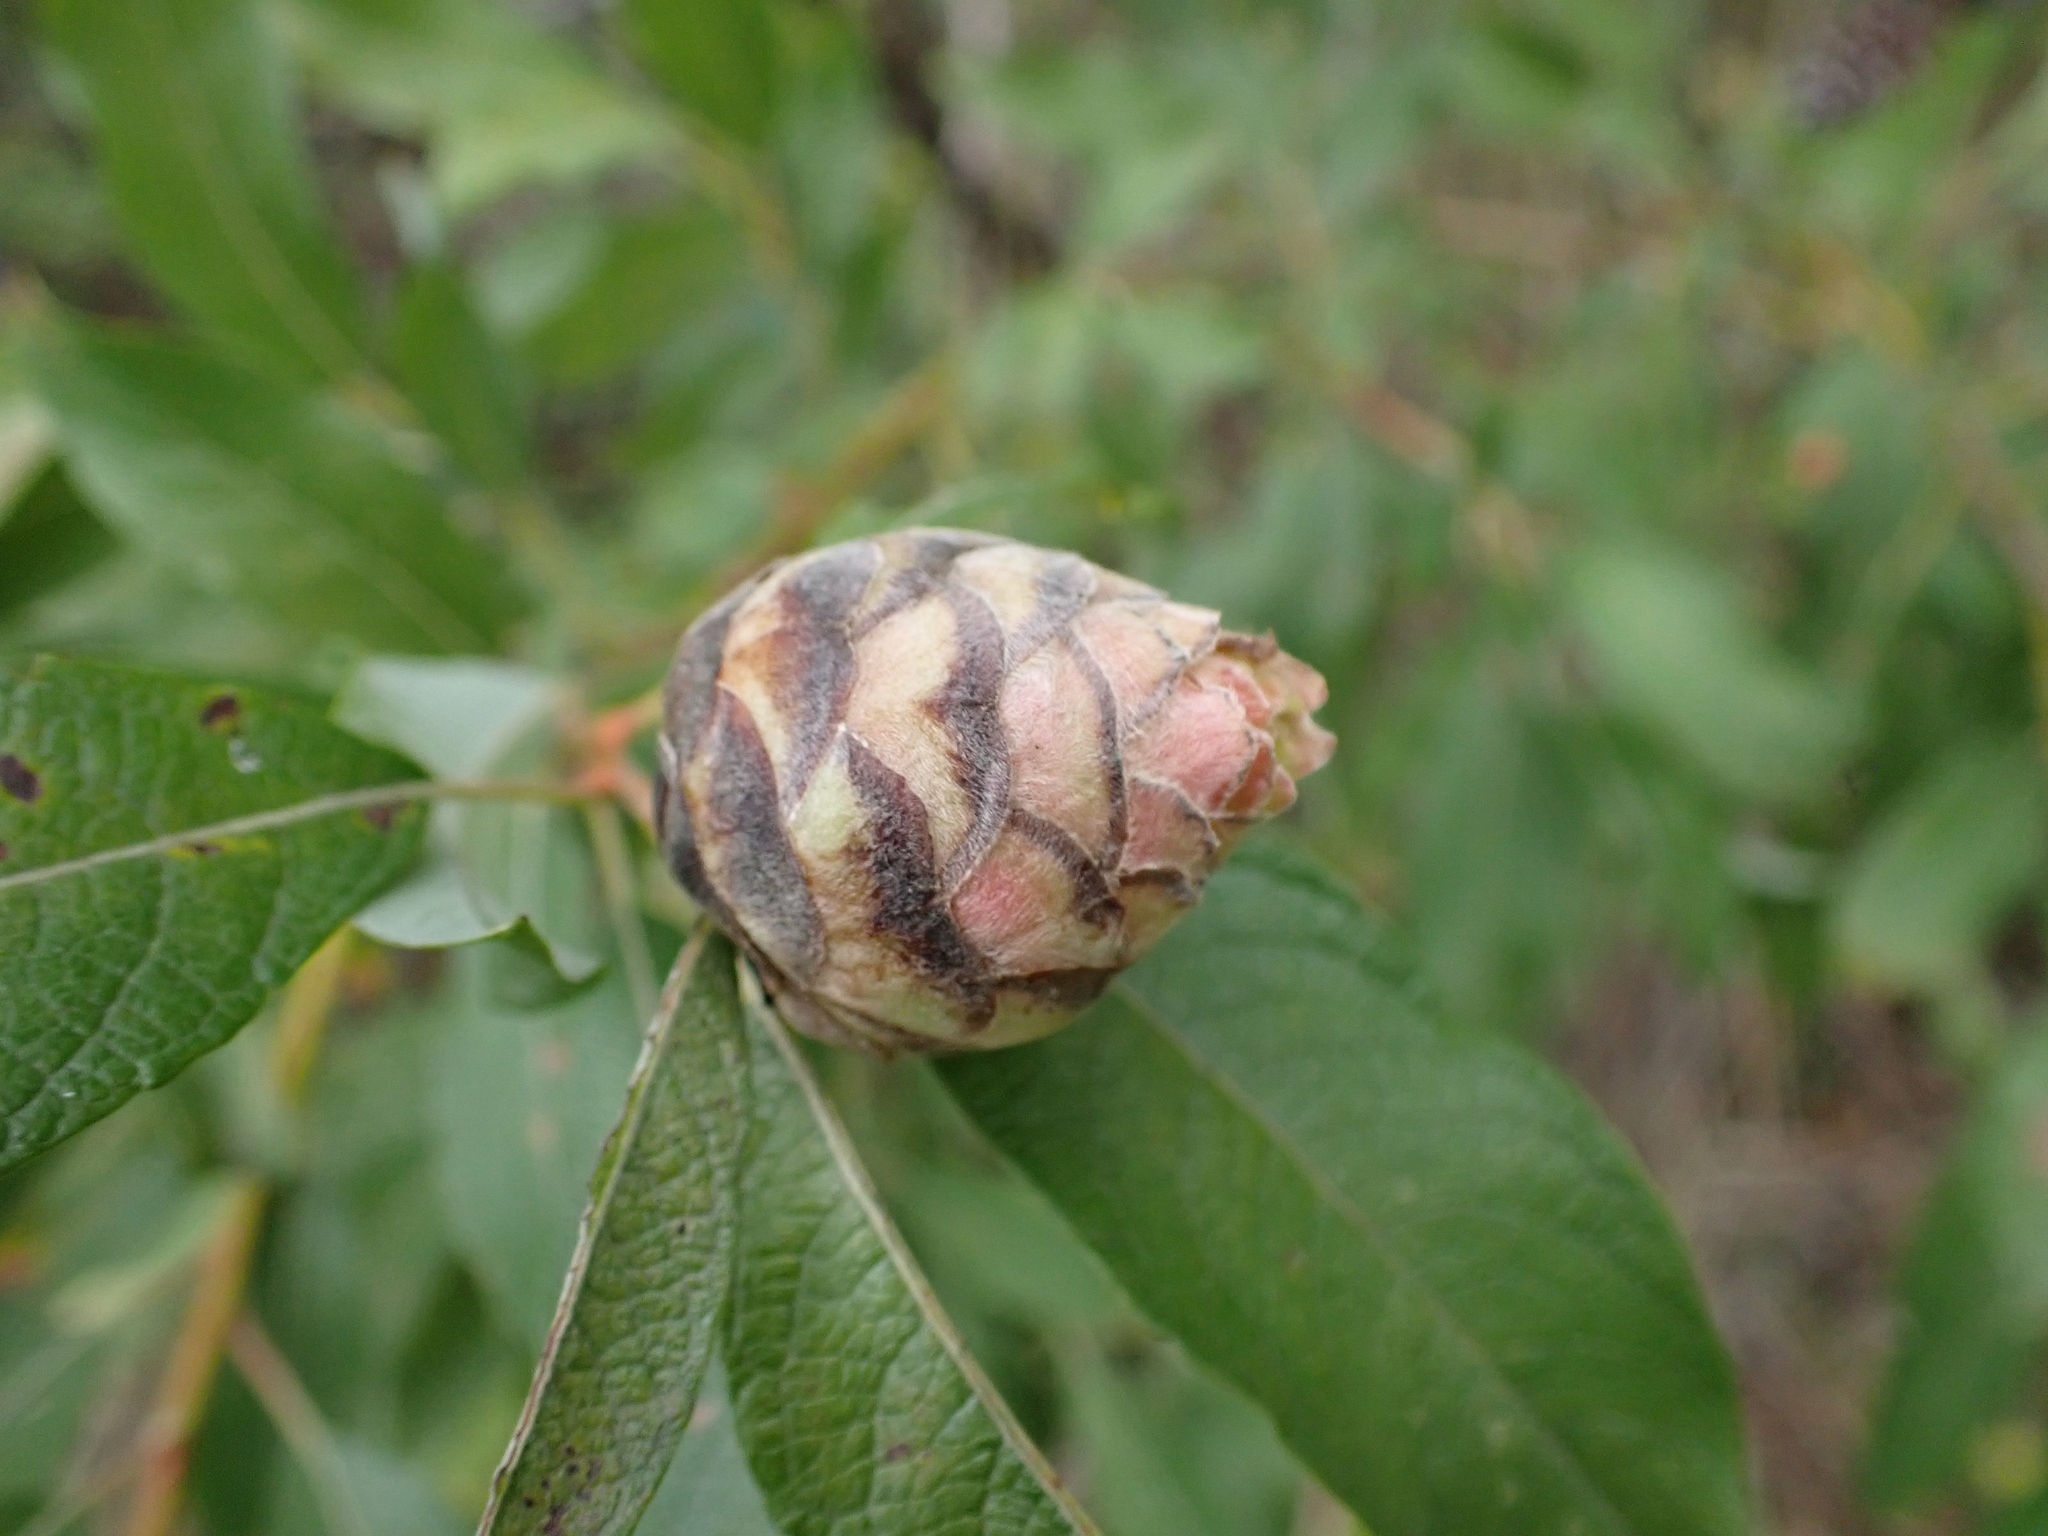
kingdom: Animalia
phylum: Arthropoda
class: Insecta
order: Diptera
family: Cecidomyiidae
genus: Rabdophaga
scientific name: Rabdophaga strobiloides
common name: Willow pinecone gall midge
